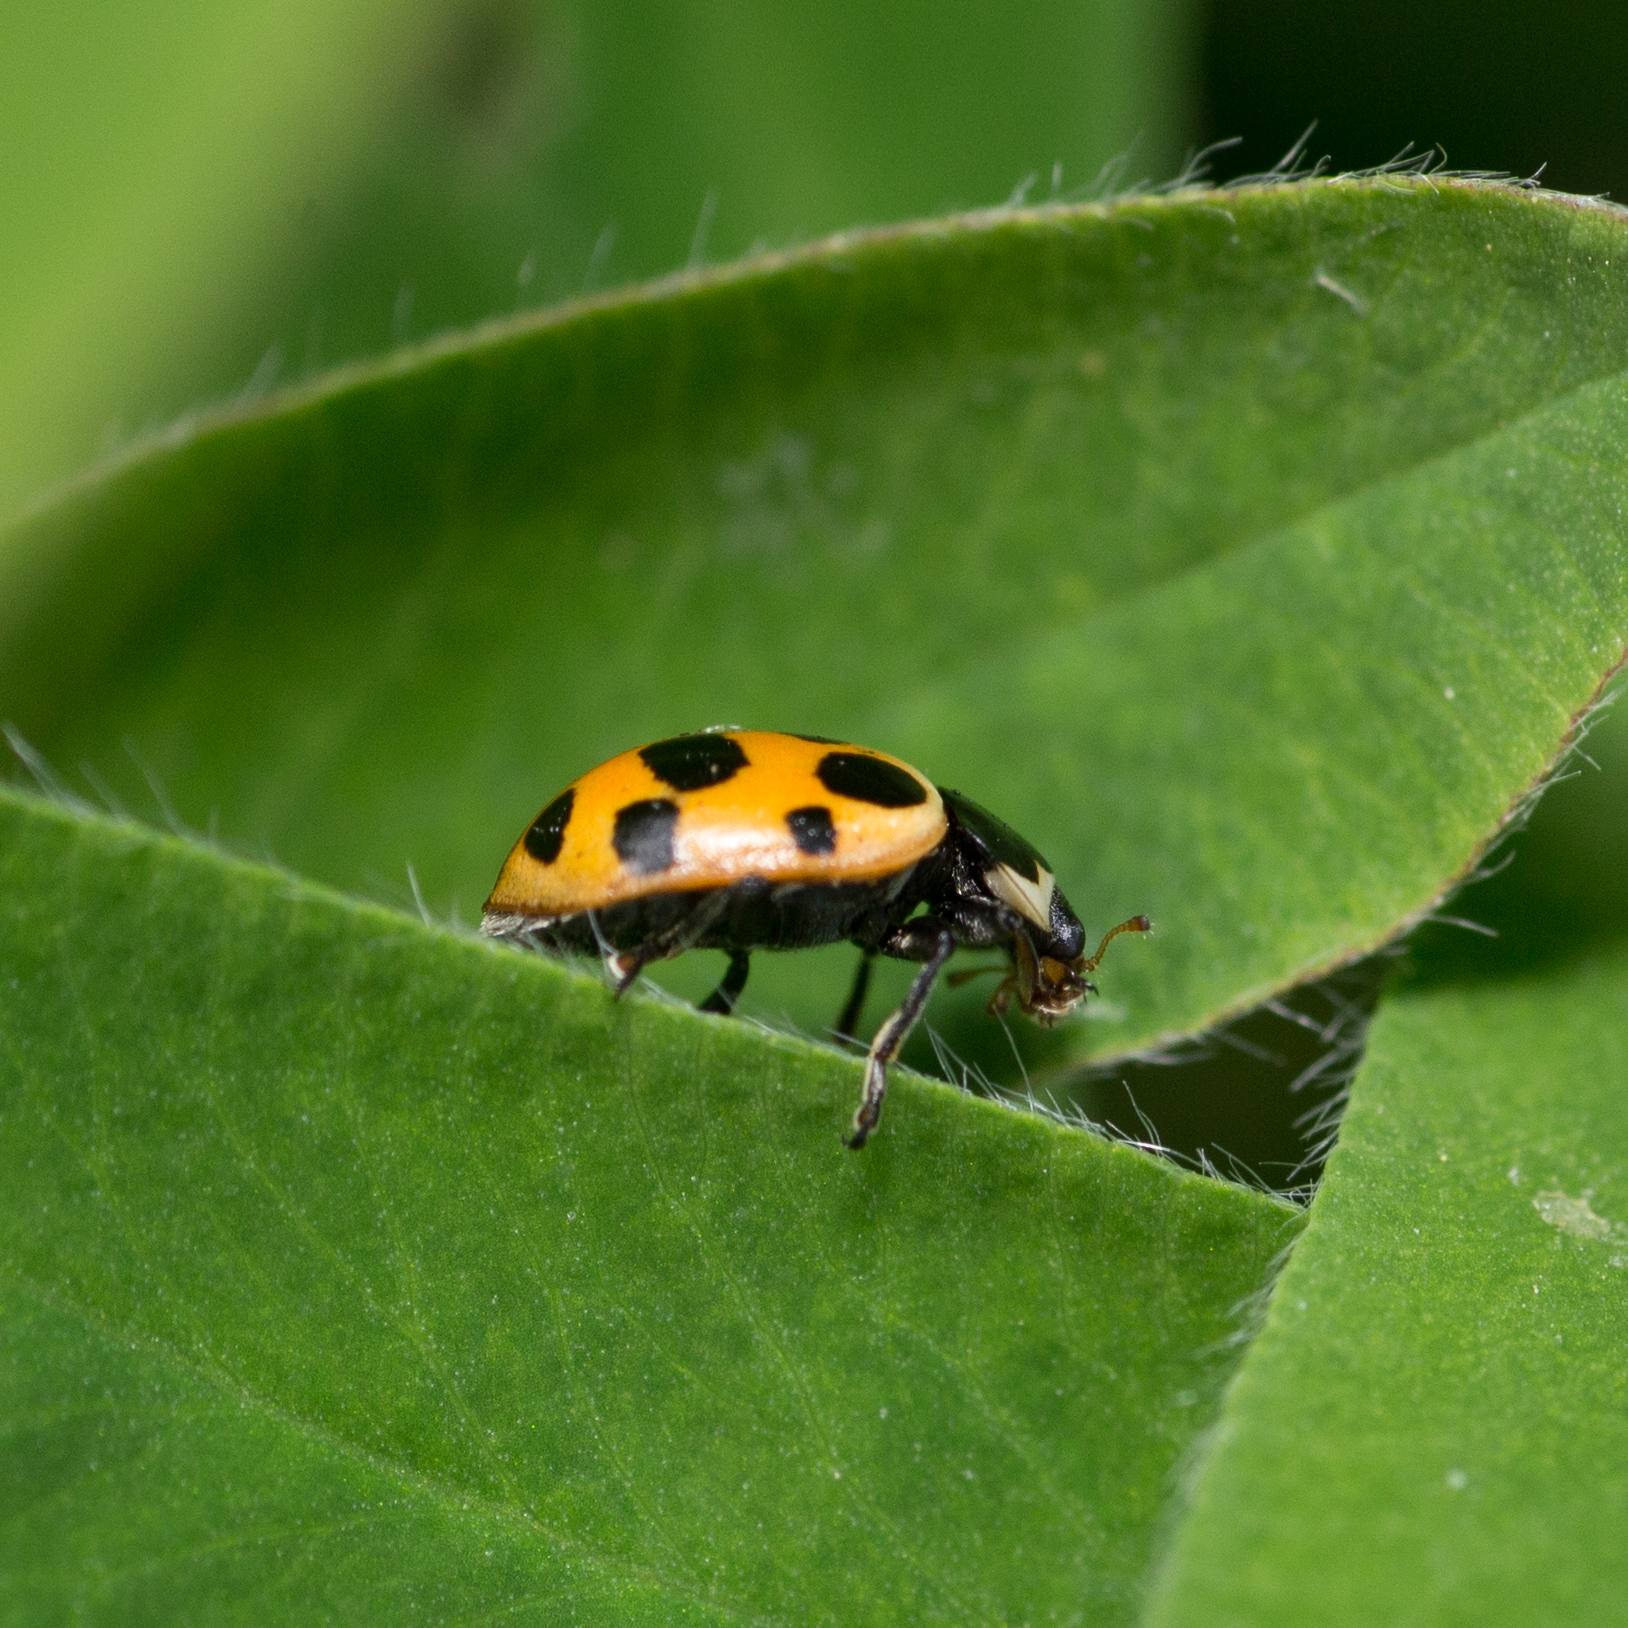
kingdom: Animalia
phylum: Arthropoda
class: Insecta
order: Coleoptera
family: Coccinellidae
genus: Ceratomegilla
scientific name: Ceratomegilla notata
